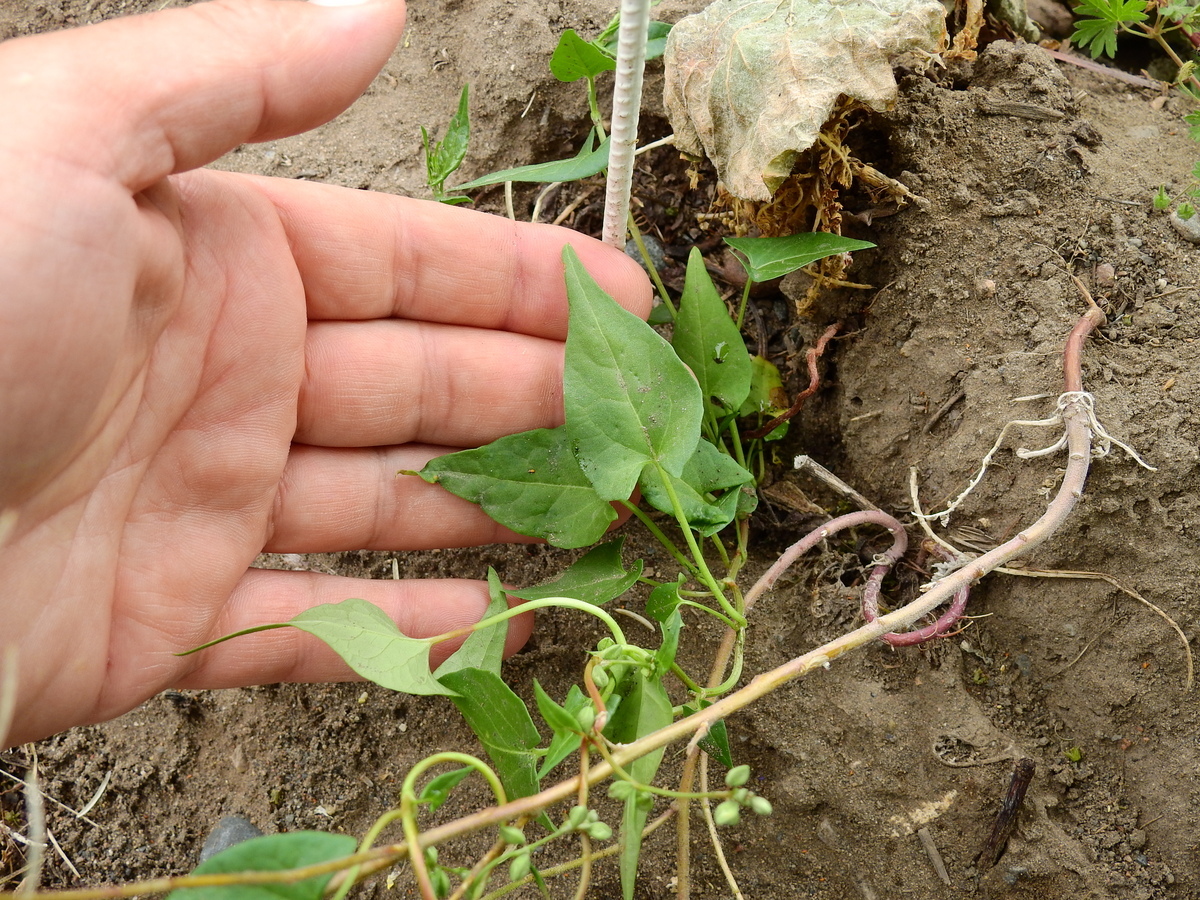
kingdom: Plantae
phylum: Tracheophyta
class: Magnoliopsida
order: Caryophyllales
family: Polygonaceae
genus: Fallopia
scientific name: Fallopia convolvulus
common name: Black bindweed
